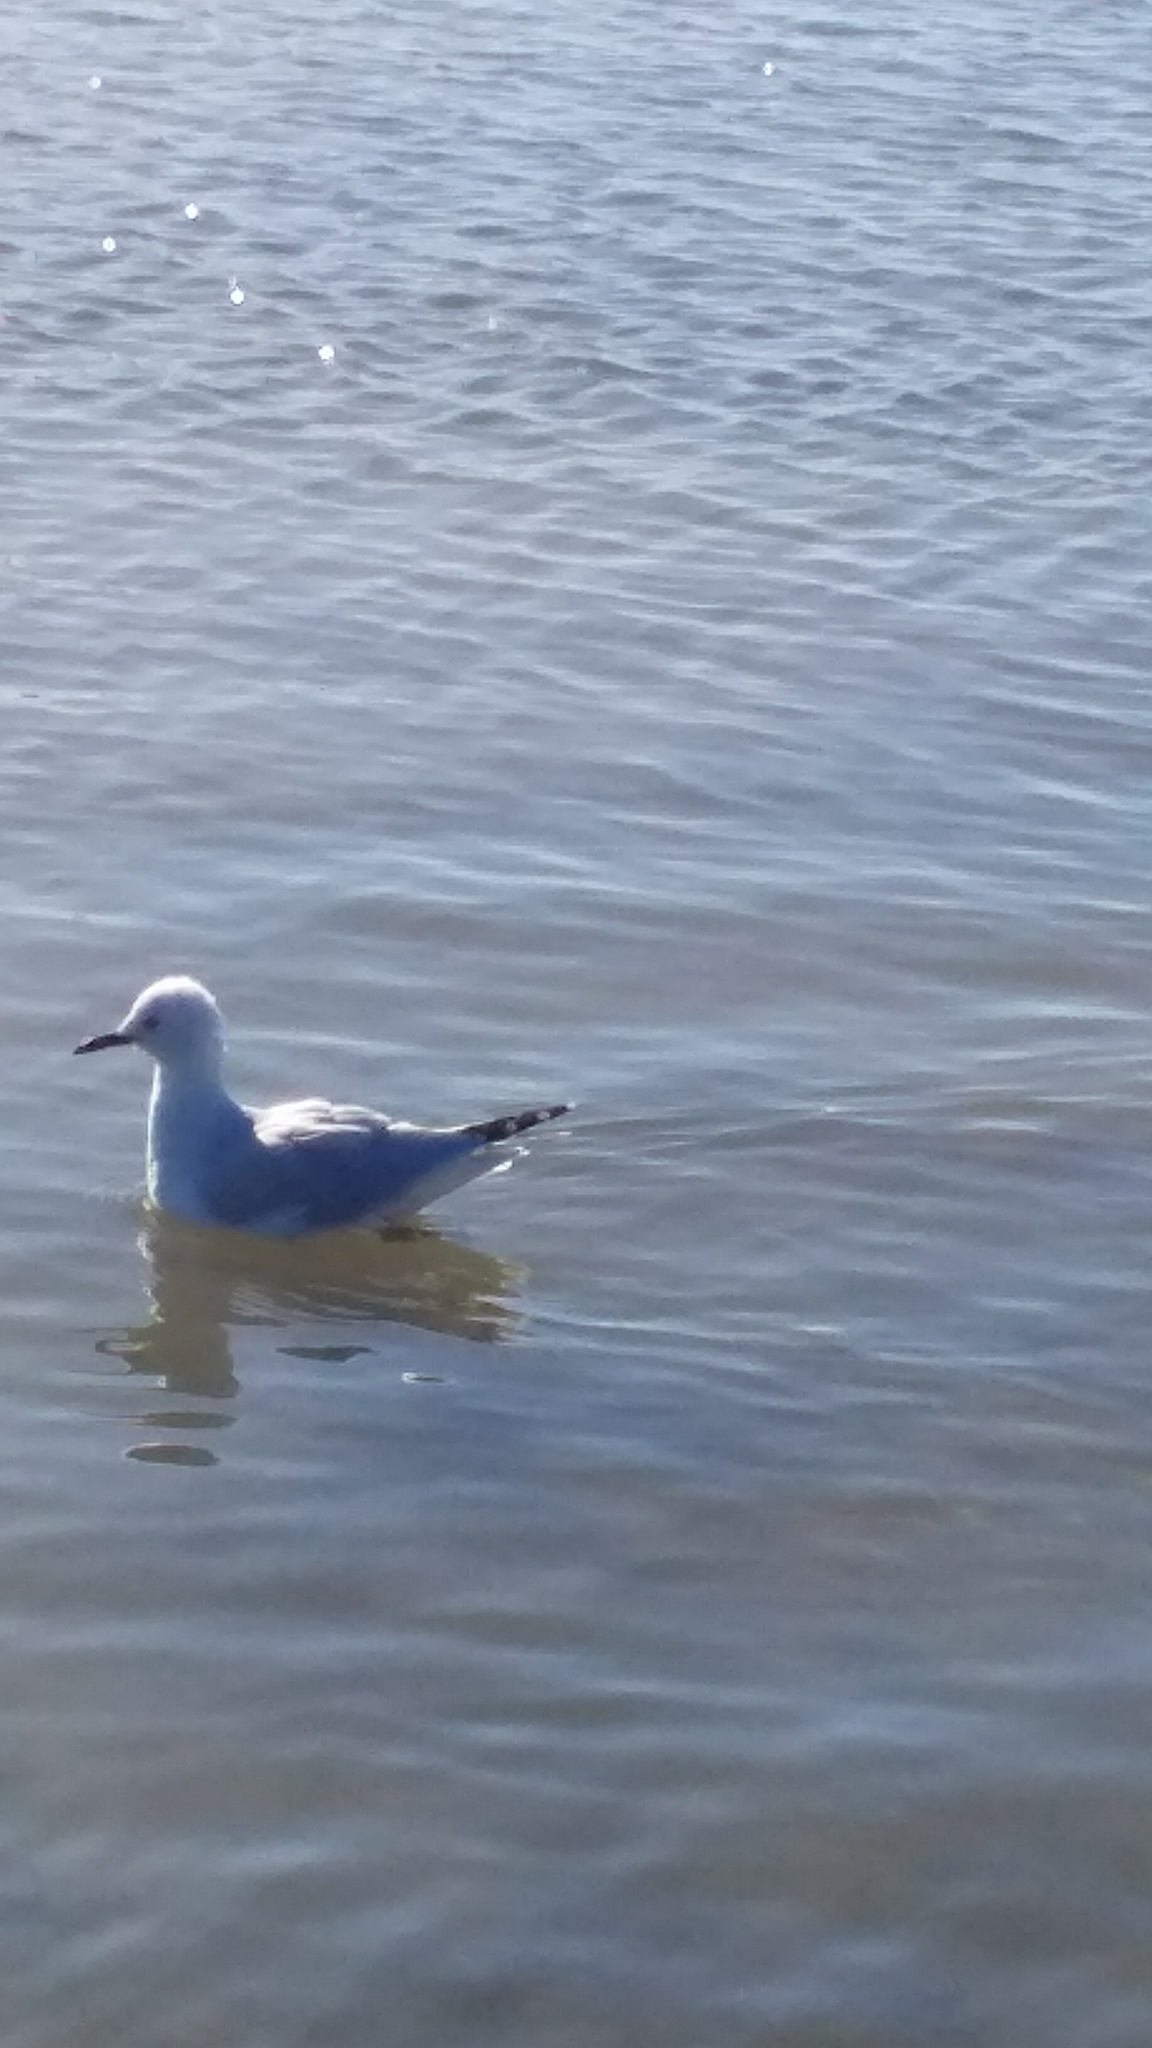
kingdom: Animalia
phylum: Chordata
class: Aves
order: Charadriiformes
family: Laridae
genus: Chroicocephalus
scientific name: Chroicocephalus bulleri
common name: Black-billed gull
